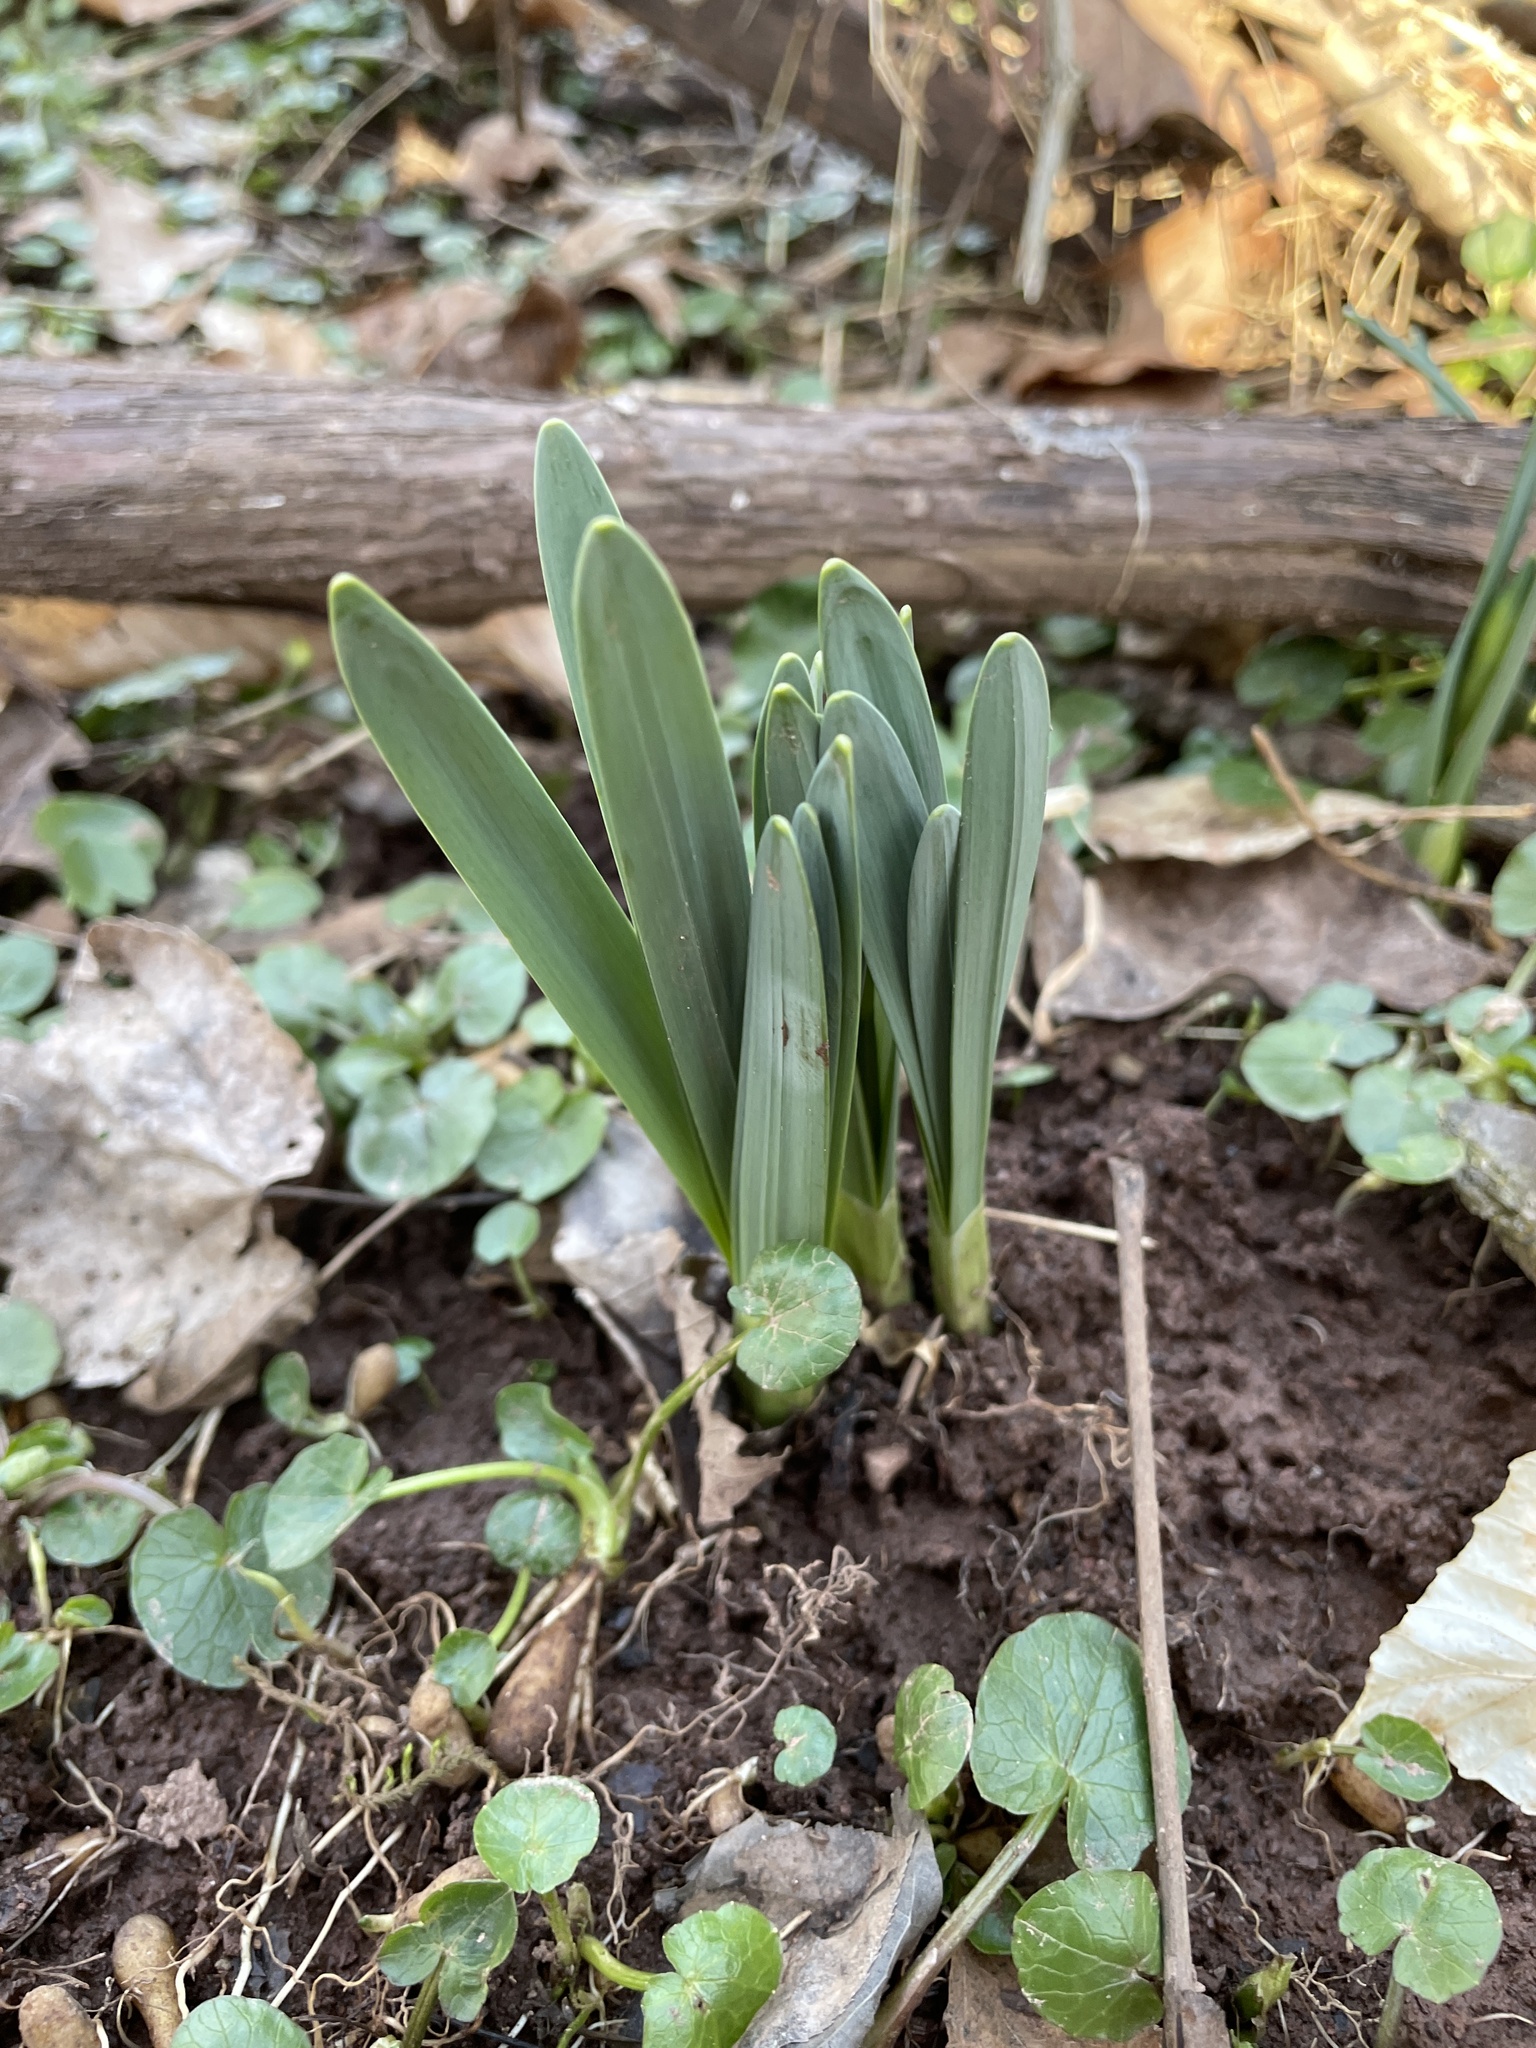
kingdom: Plantae
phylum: Tracheophyta
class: Liliopsida
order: Asparagales
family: Amaryllidaceae
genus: Narcissus
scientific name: Narcissus pseudonarcissus
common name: Daffodil
